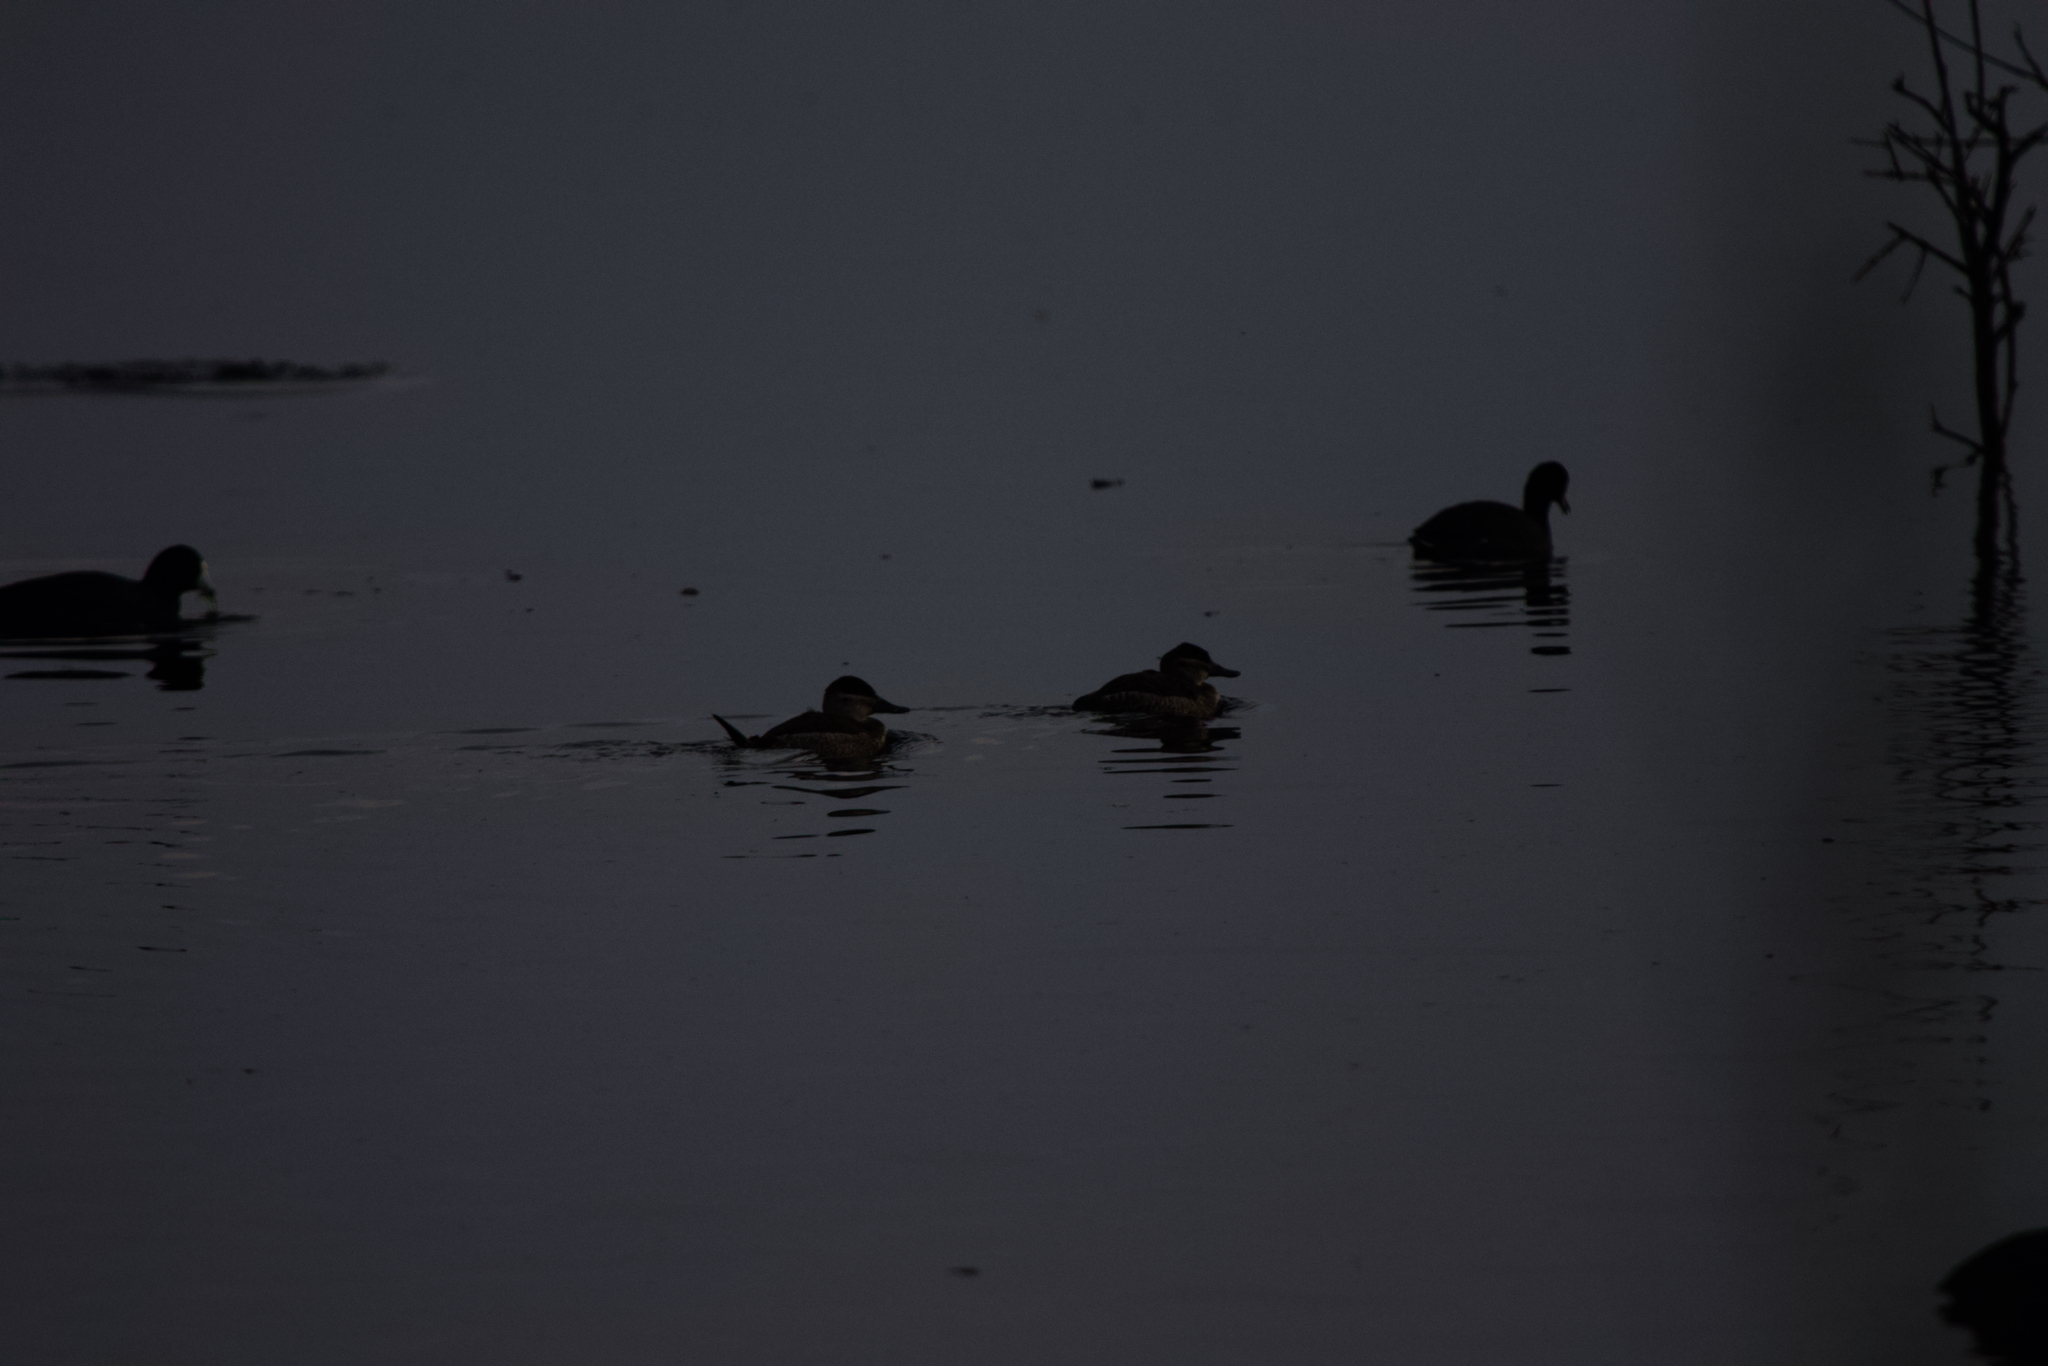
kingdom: Animalia
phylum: Chordata
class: Aves
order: Anseriformes
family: Anatidae
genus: Oxyura
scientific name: Oxyura jamaicensis
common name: Ruddy duck
